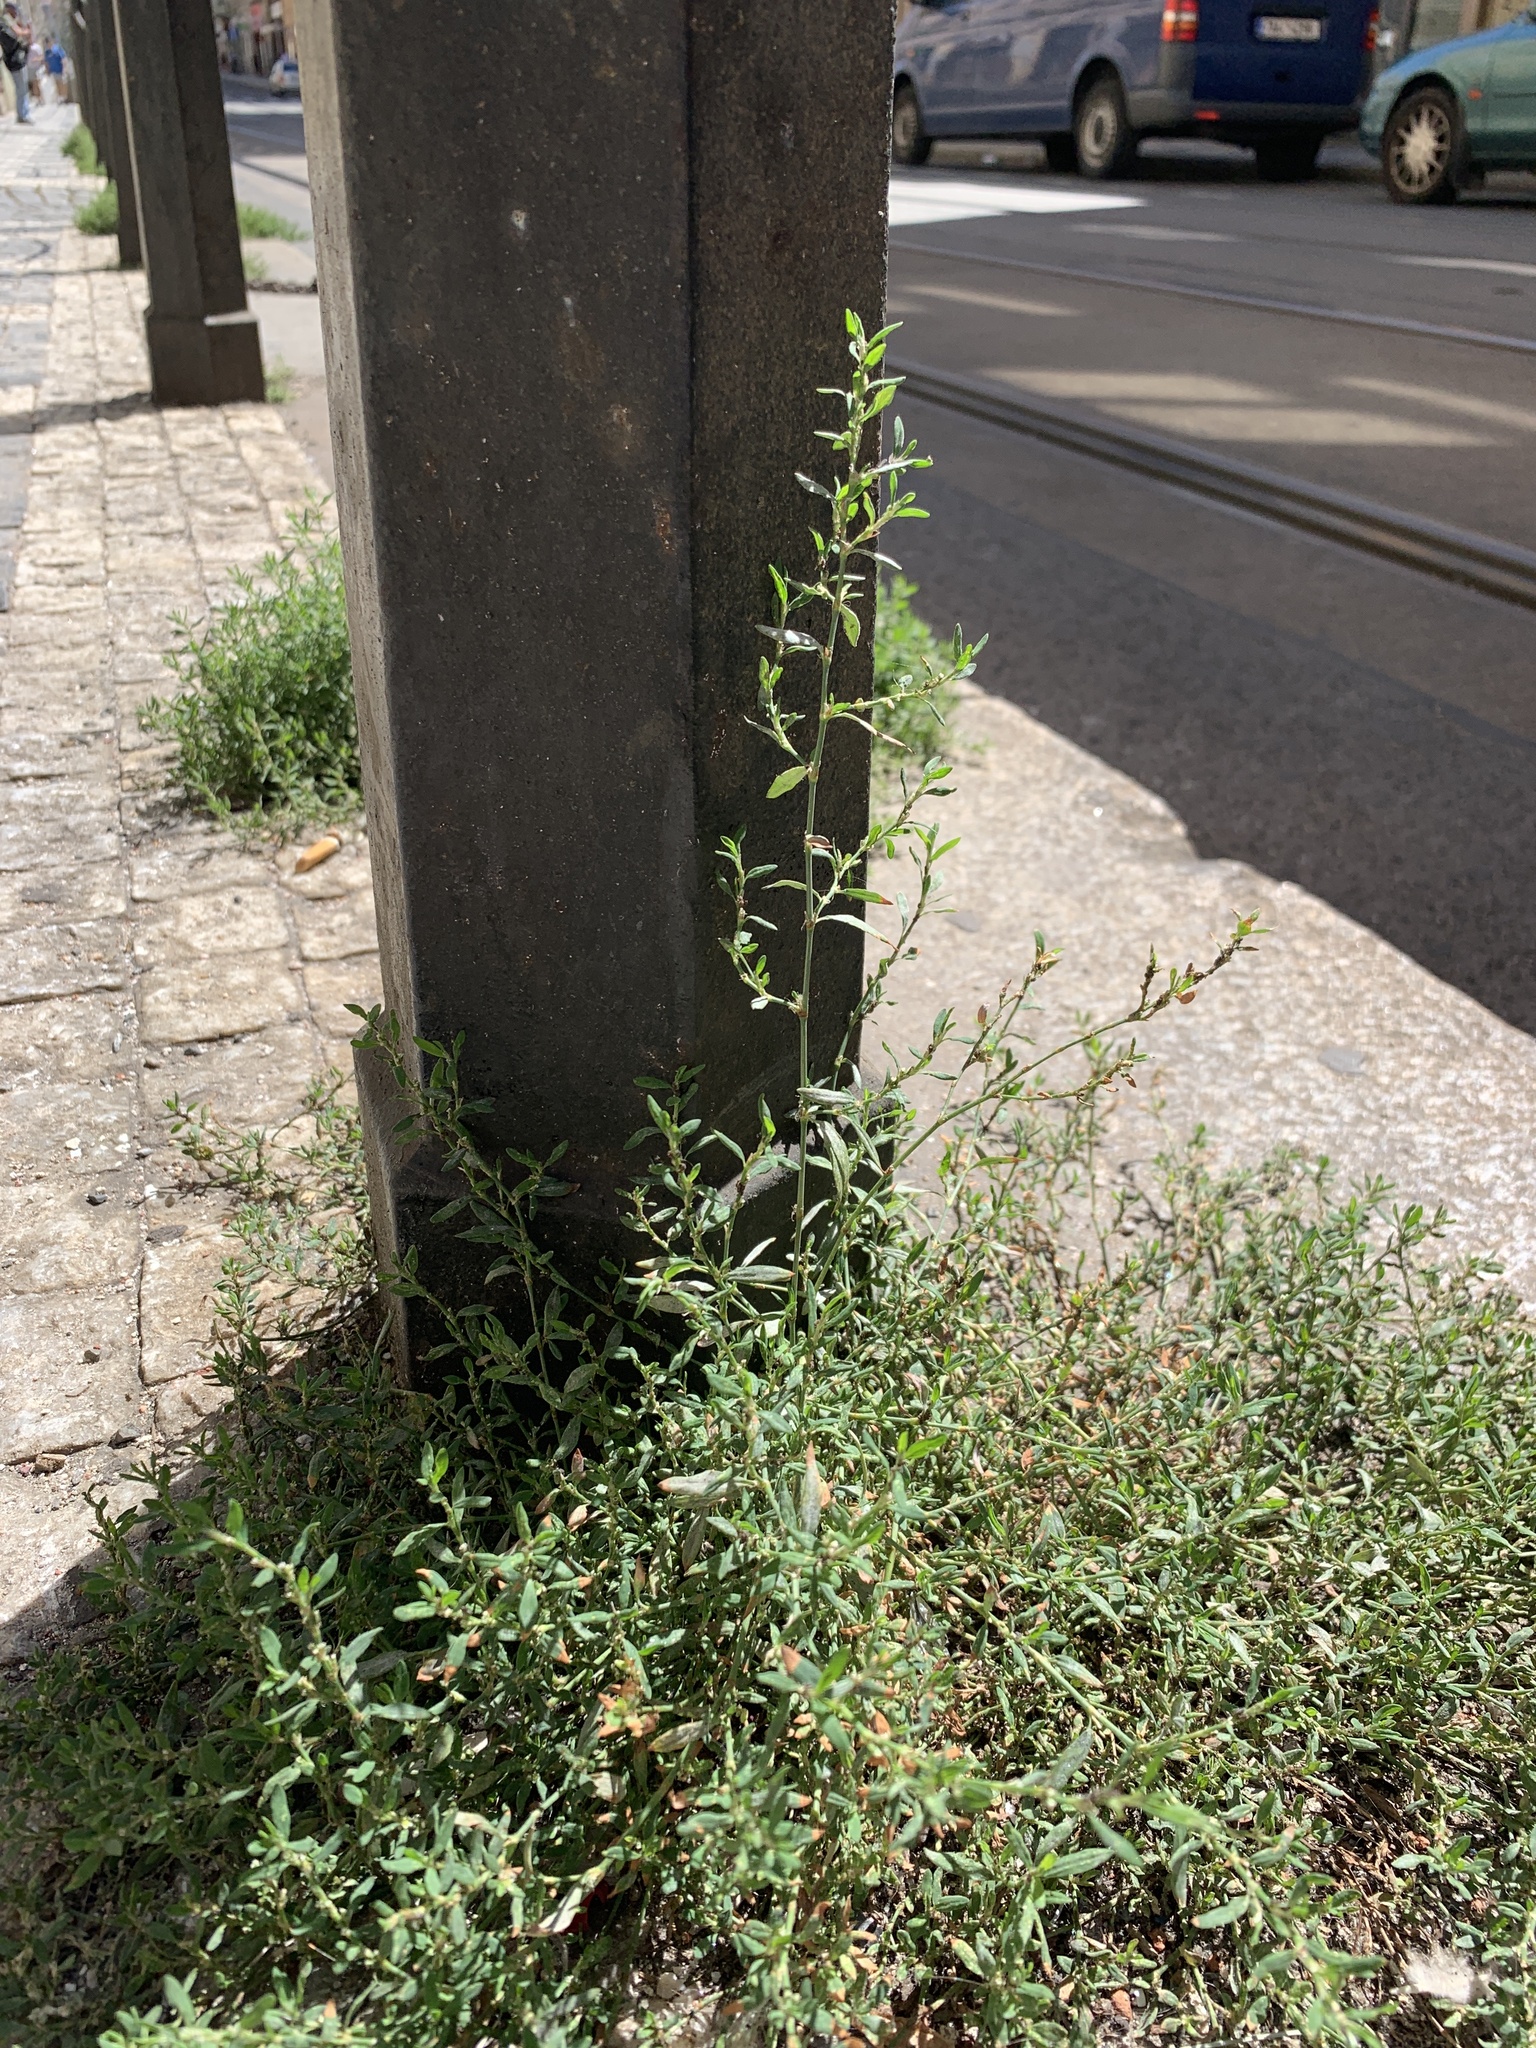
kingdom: Plantae
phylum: Tracheophyta
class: Magnoliopsida
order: Caryophyllales
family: Polygonaceae
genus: Polygonum
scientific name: Polygonum
